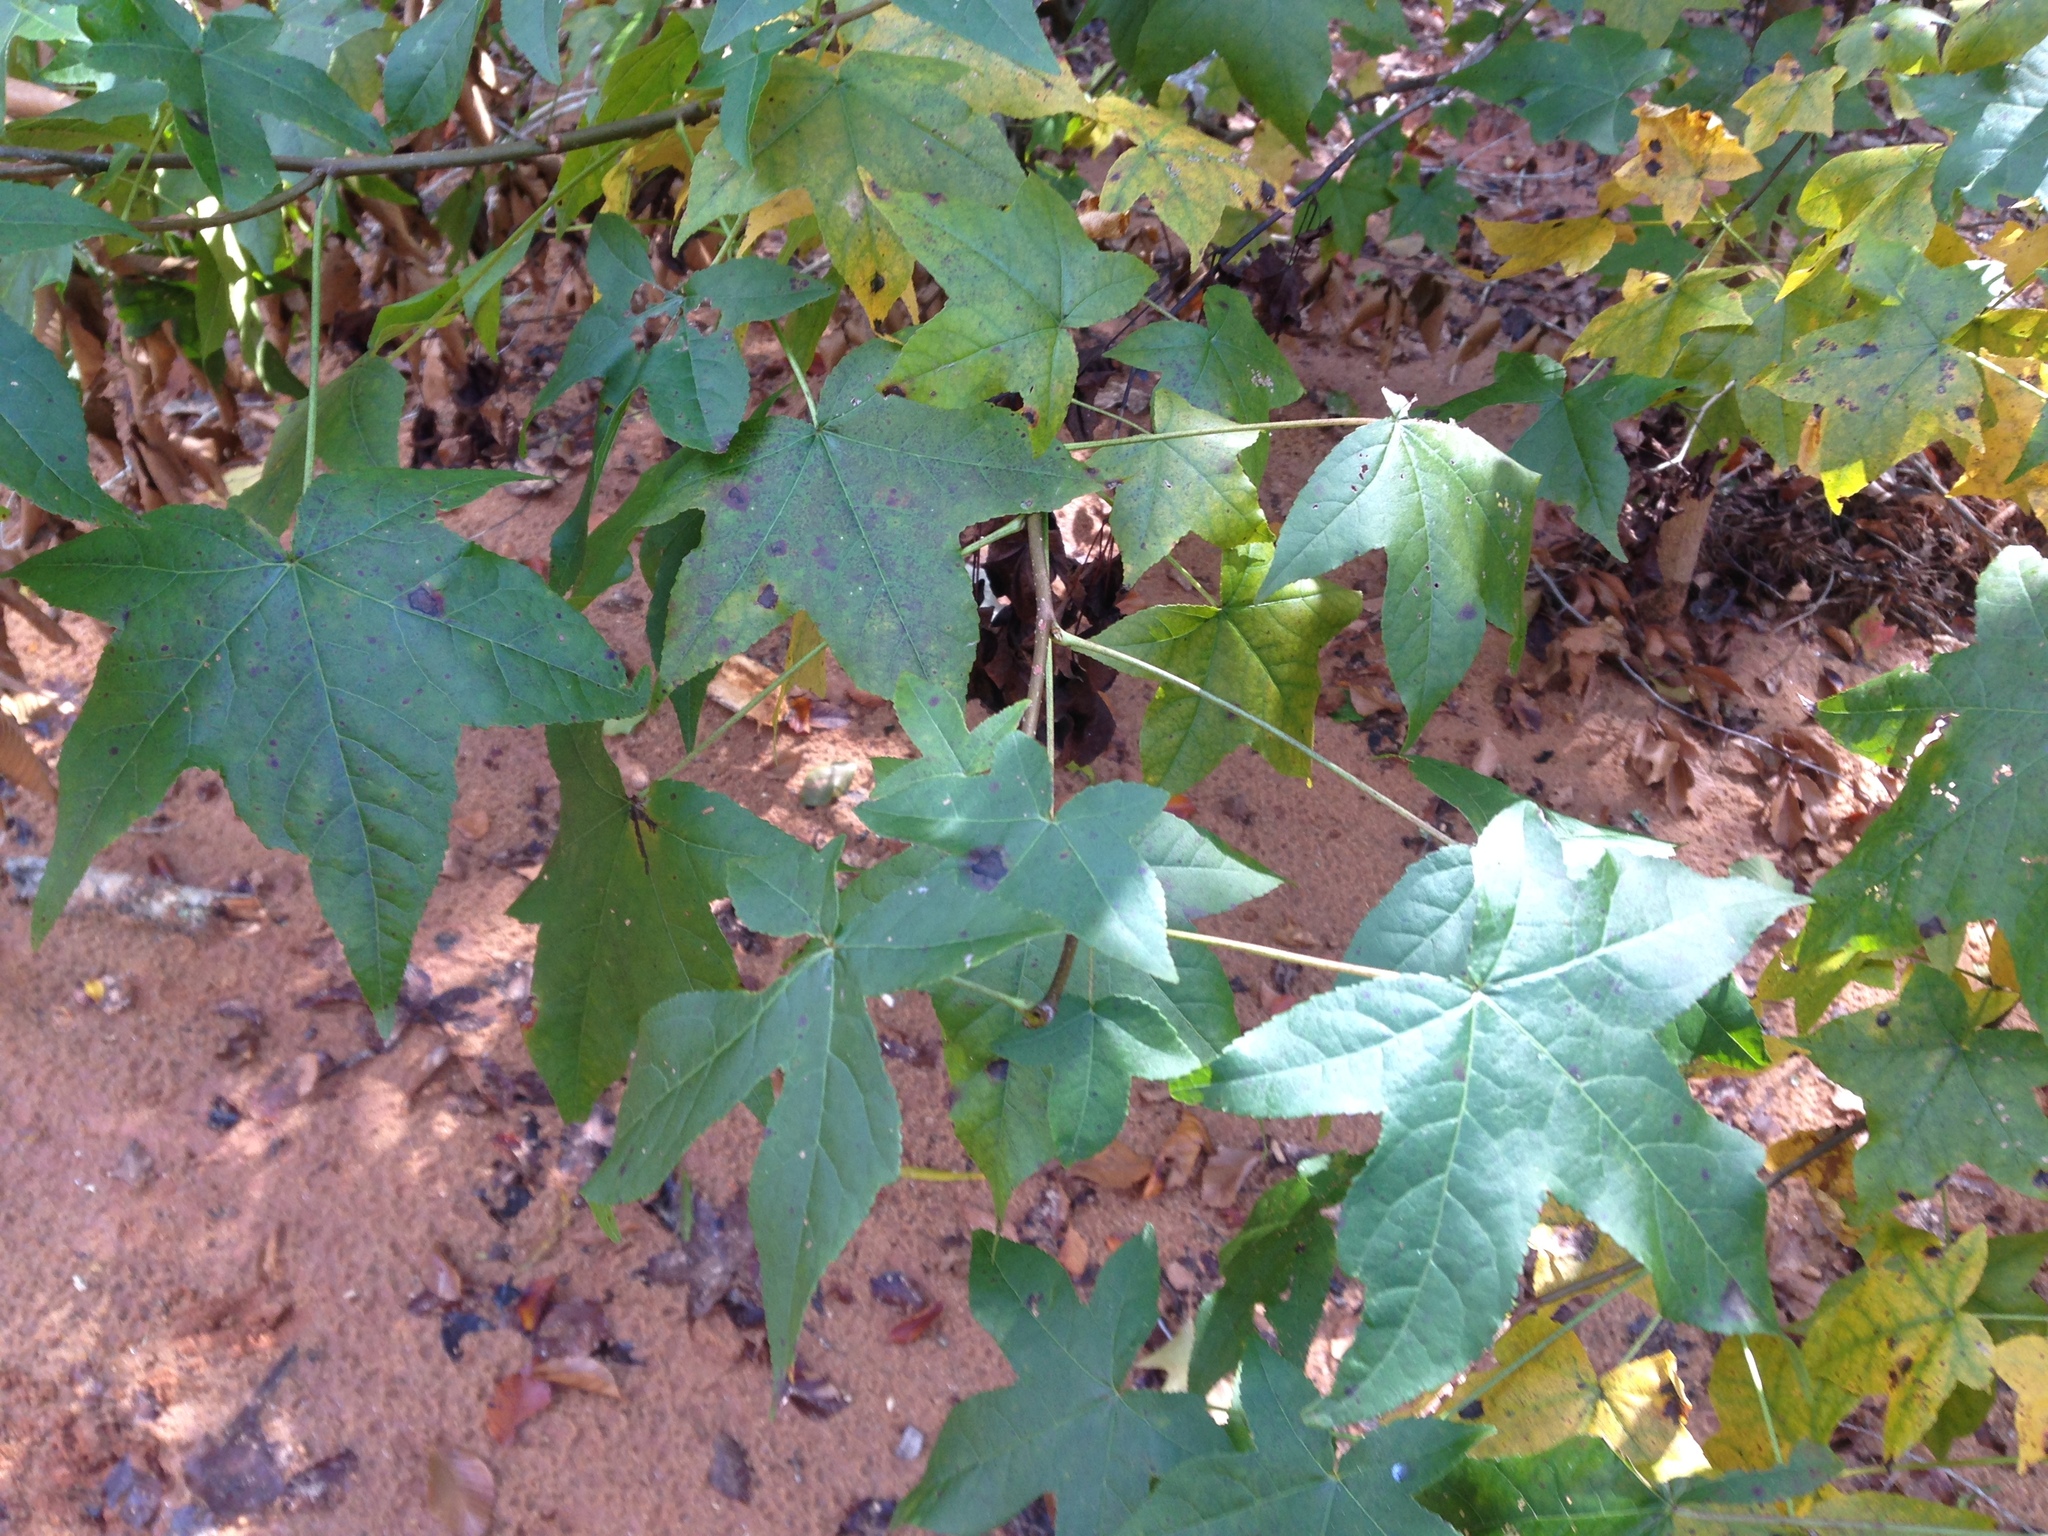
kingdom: Plantae
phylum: Tracheophyta
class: Magnoliopsida
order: Saxifragales
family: Altingiaceae
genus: Liquidambar
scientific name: Liquidambar styraciflua
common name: Sweet gum
